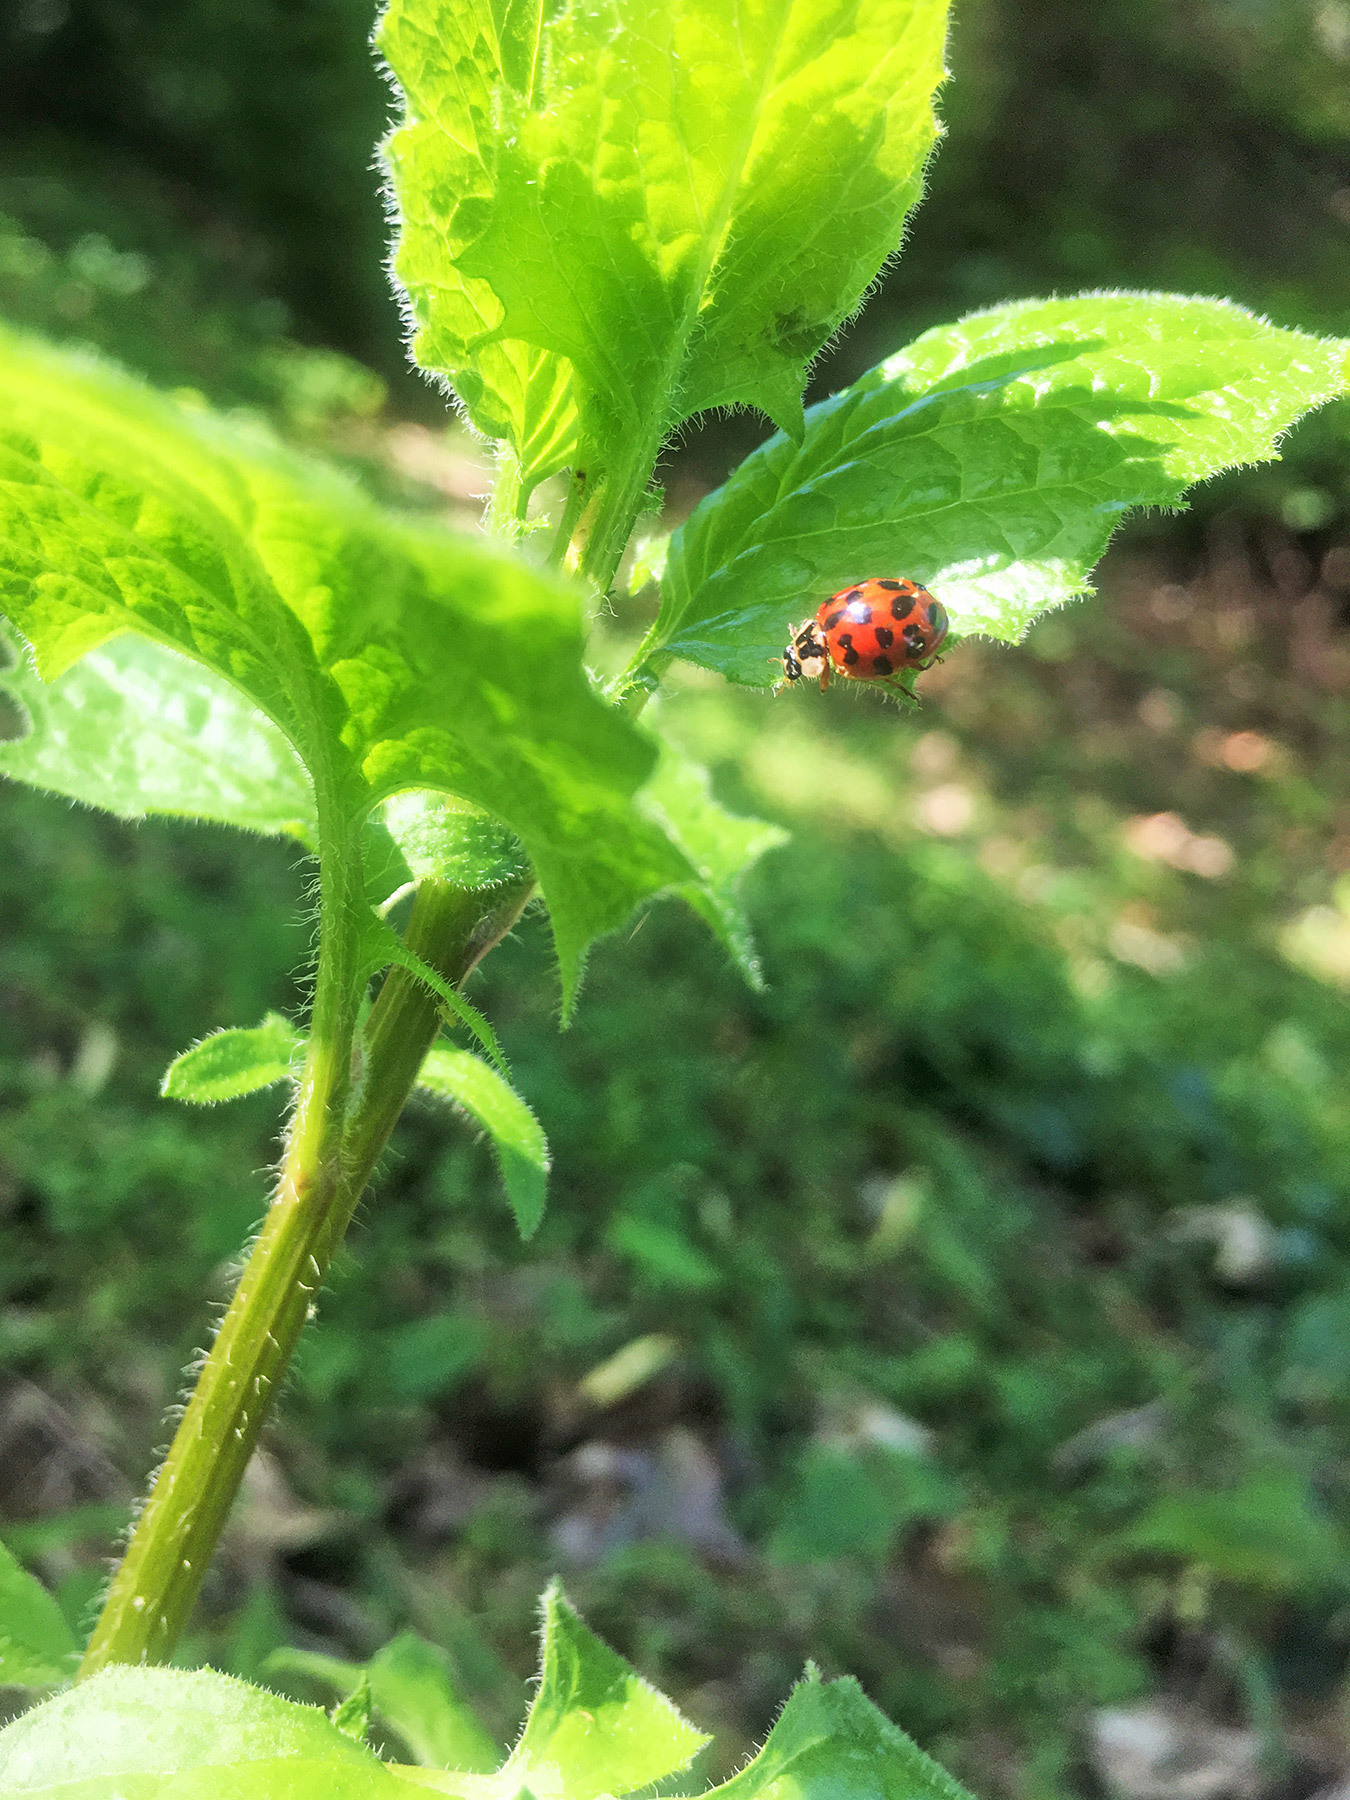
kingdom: Animalia
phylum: Arthropoda
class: Insecta
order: Coleoptera
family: Coccinellidae
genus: Harmonia
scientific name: Harmonia axyridis
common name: Harlequin ladybird
